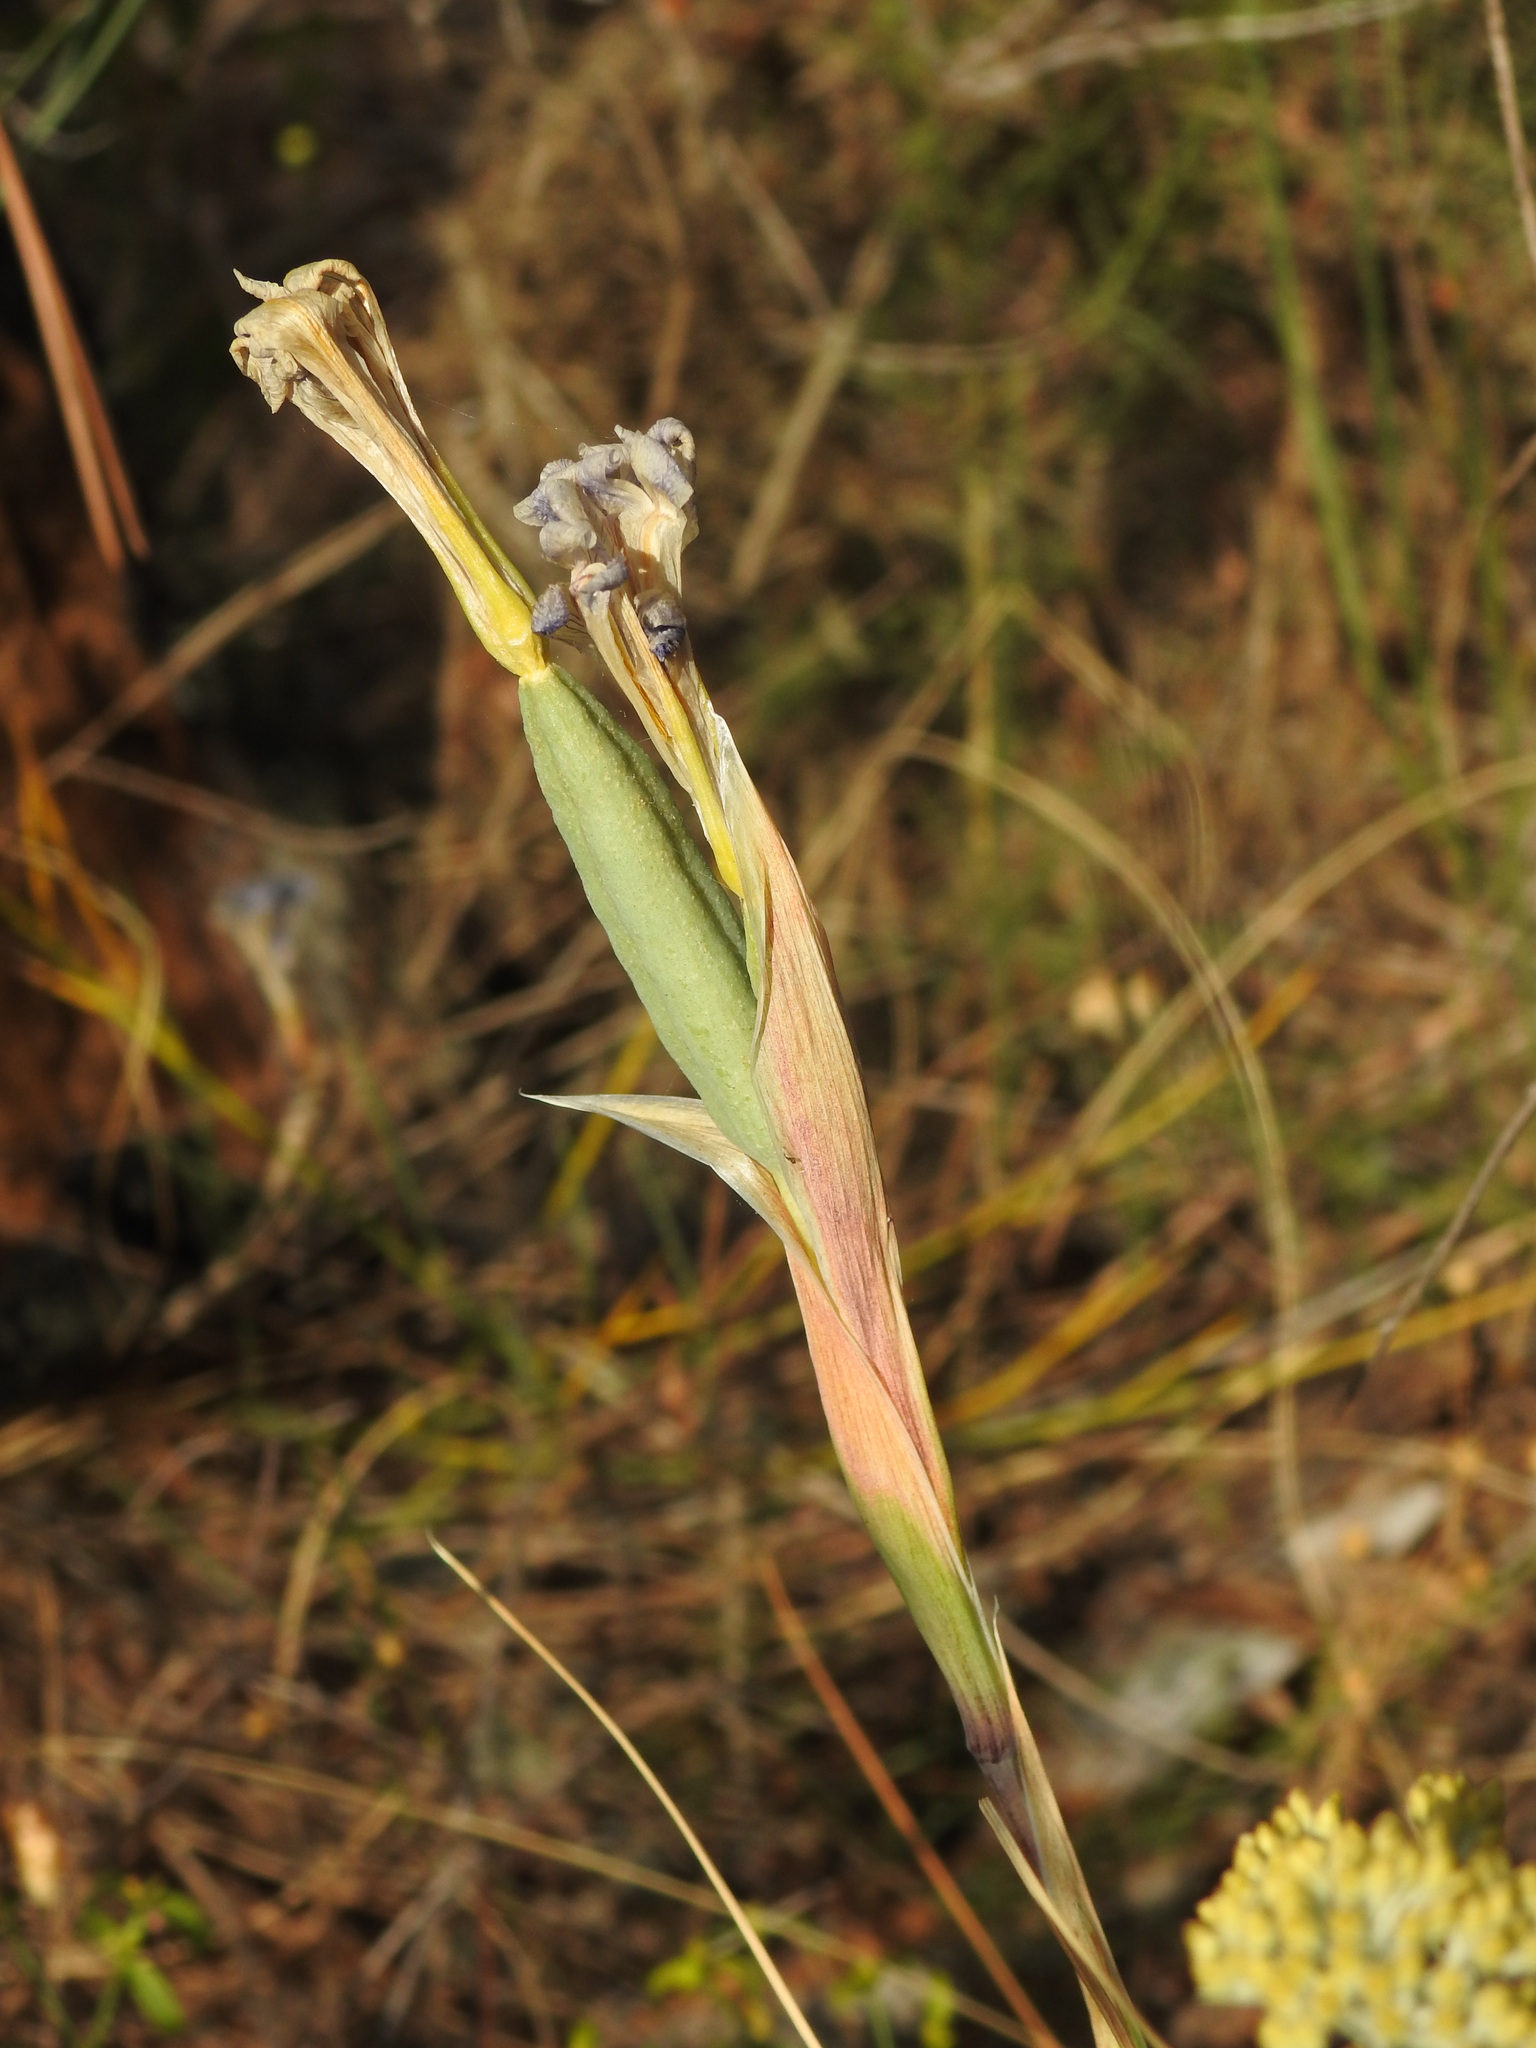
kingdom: Plantae
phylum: Tracheophyta
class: Liliopsida
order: Asparagales
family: Iridaceae
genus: Iris
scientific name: Iris xiphium
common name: Spanish iris
